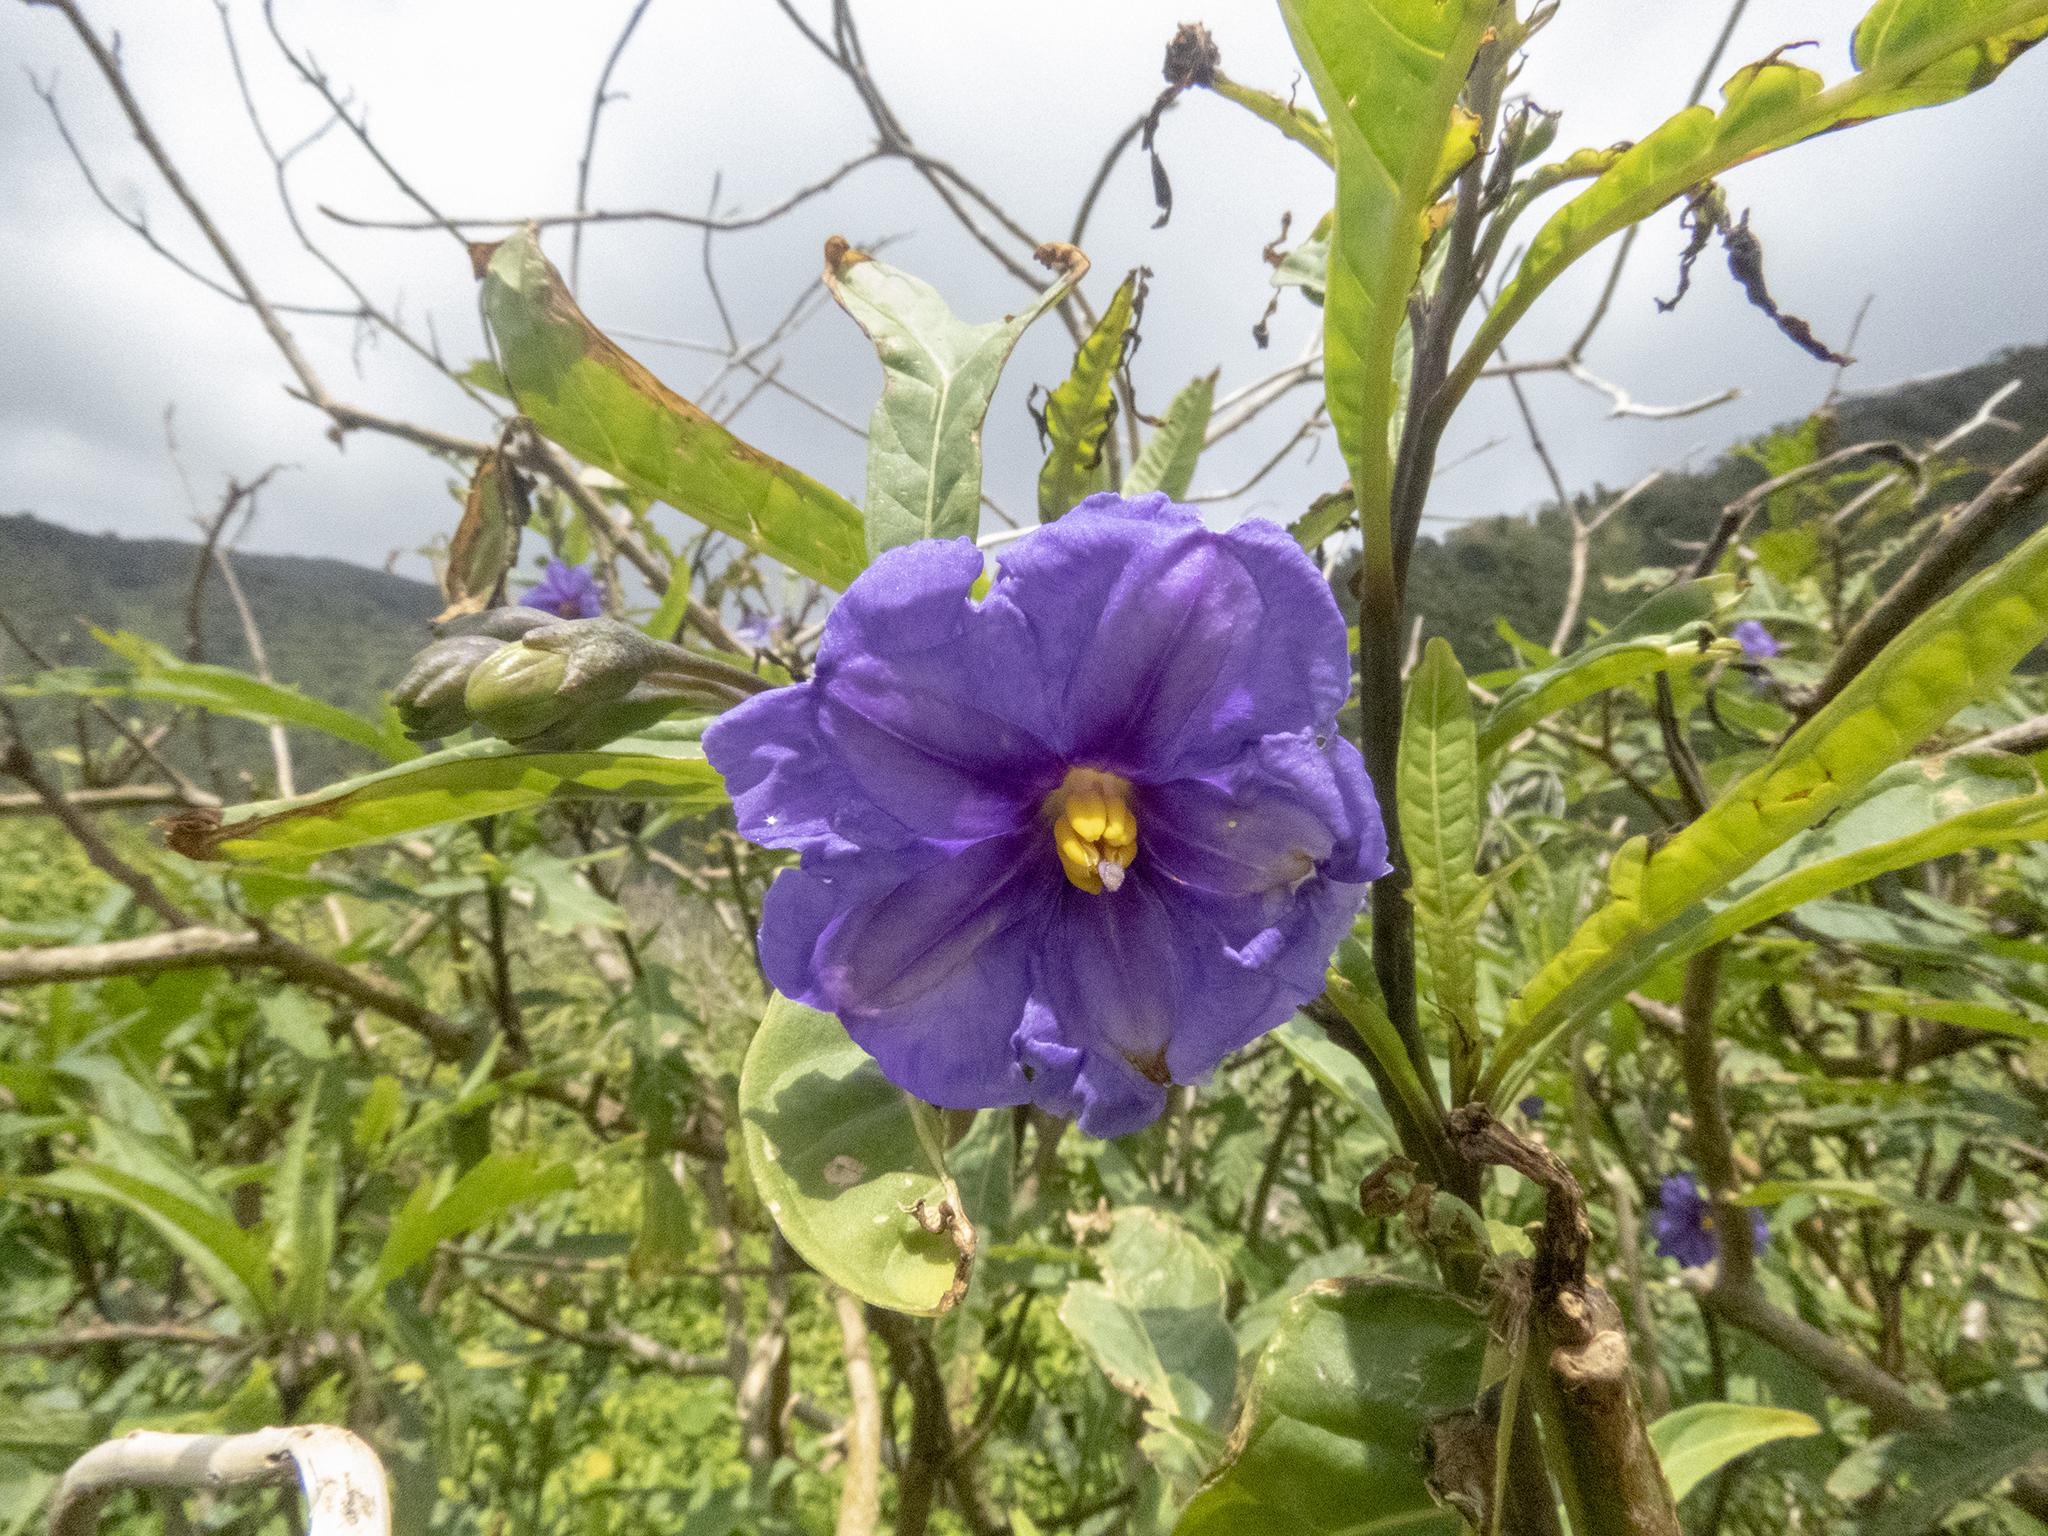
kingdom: Plantae
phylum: Tracheophyta
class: Magnoliopsida
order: Solanales
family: Solanaceae
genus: Solanum
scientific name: Solanum laciniatum
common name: Kangaroo-apple
